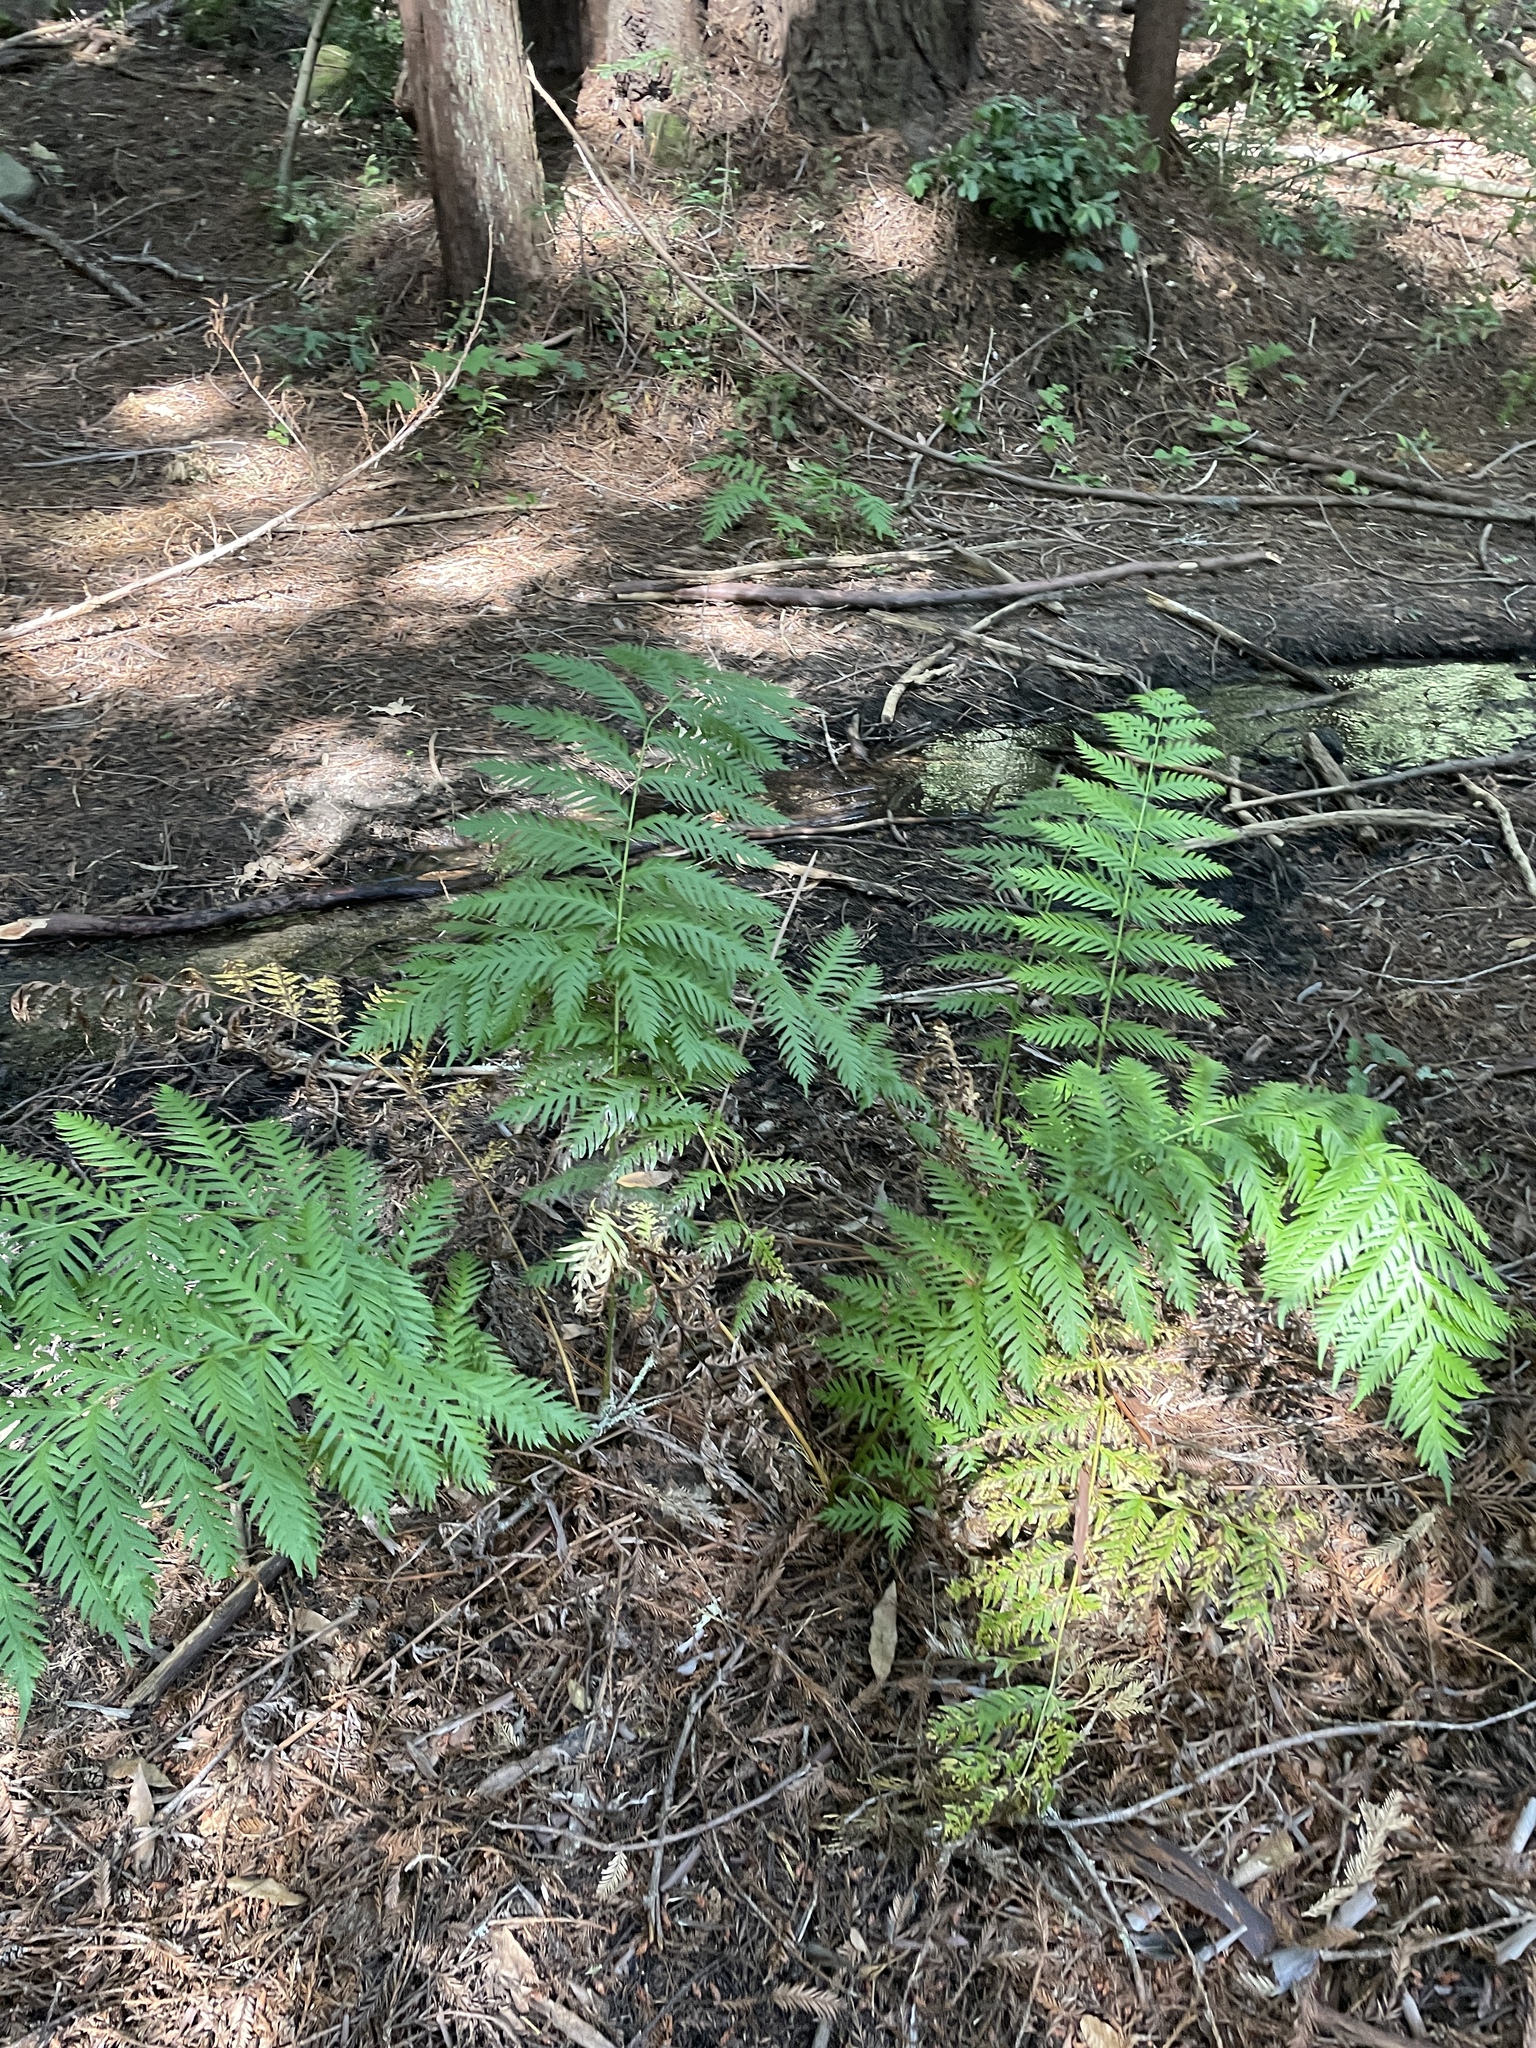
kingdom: Plantae
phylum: Tracheophyta
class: Polypodiopsida
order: Polypodiales
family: Blechnaceae
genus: Woodwardia
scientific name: Woodwardia fimbriata
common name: Giant chain fern
